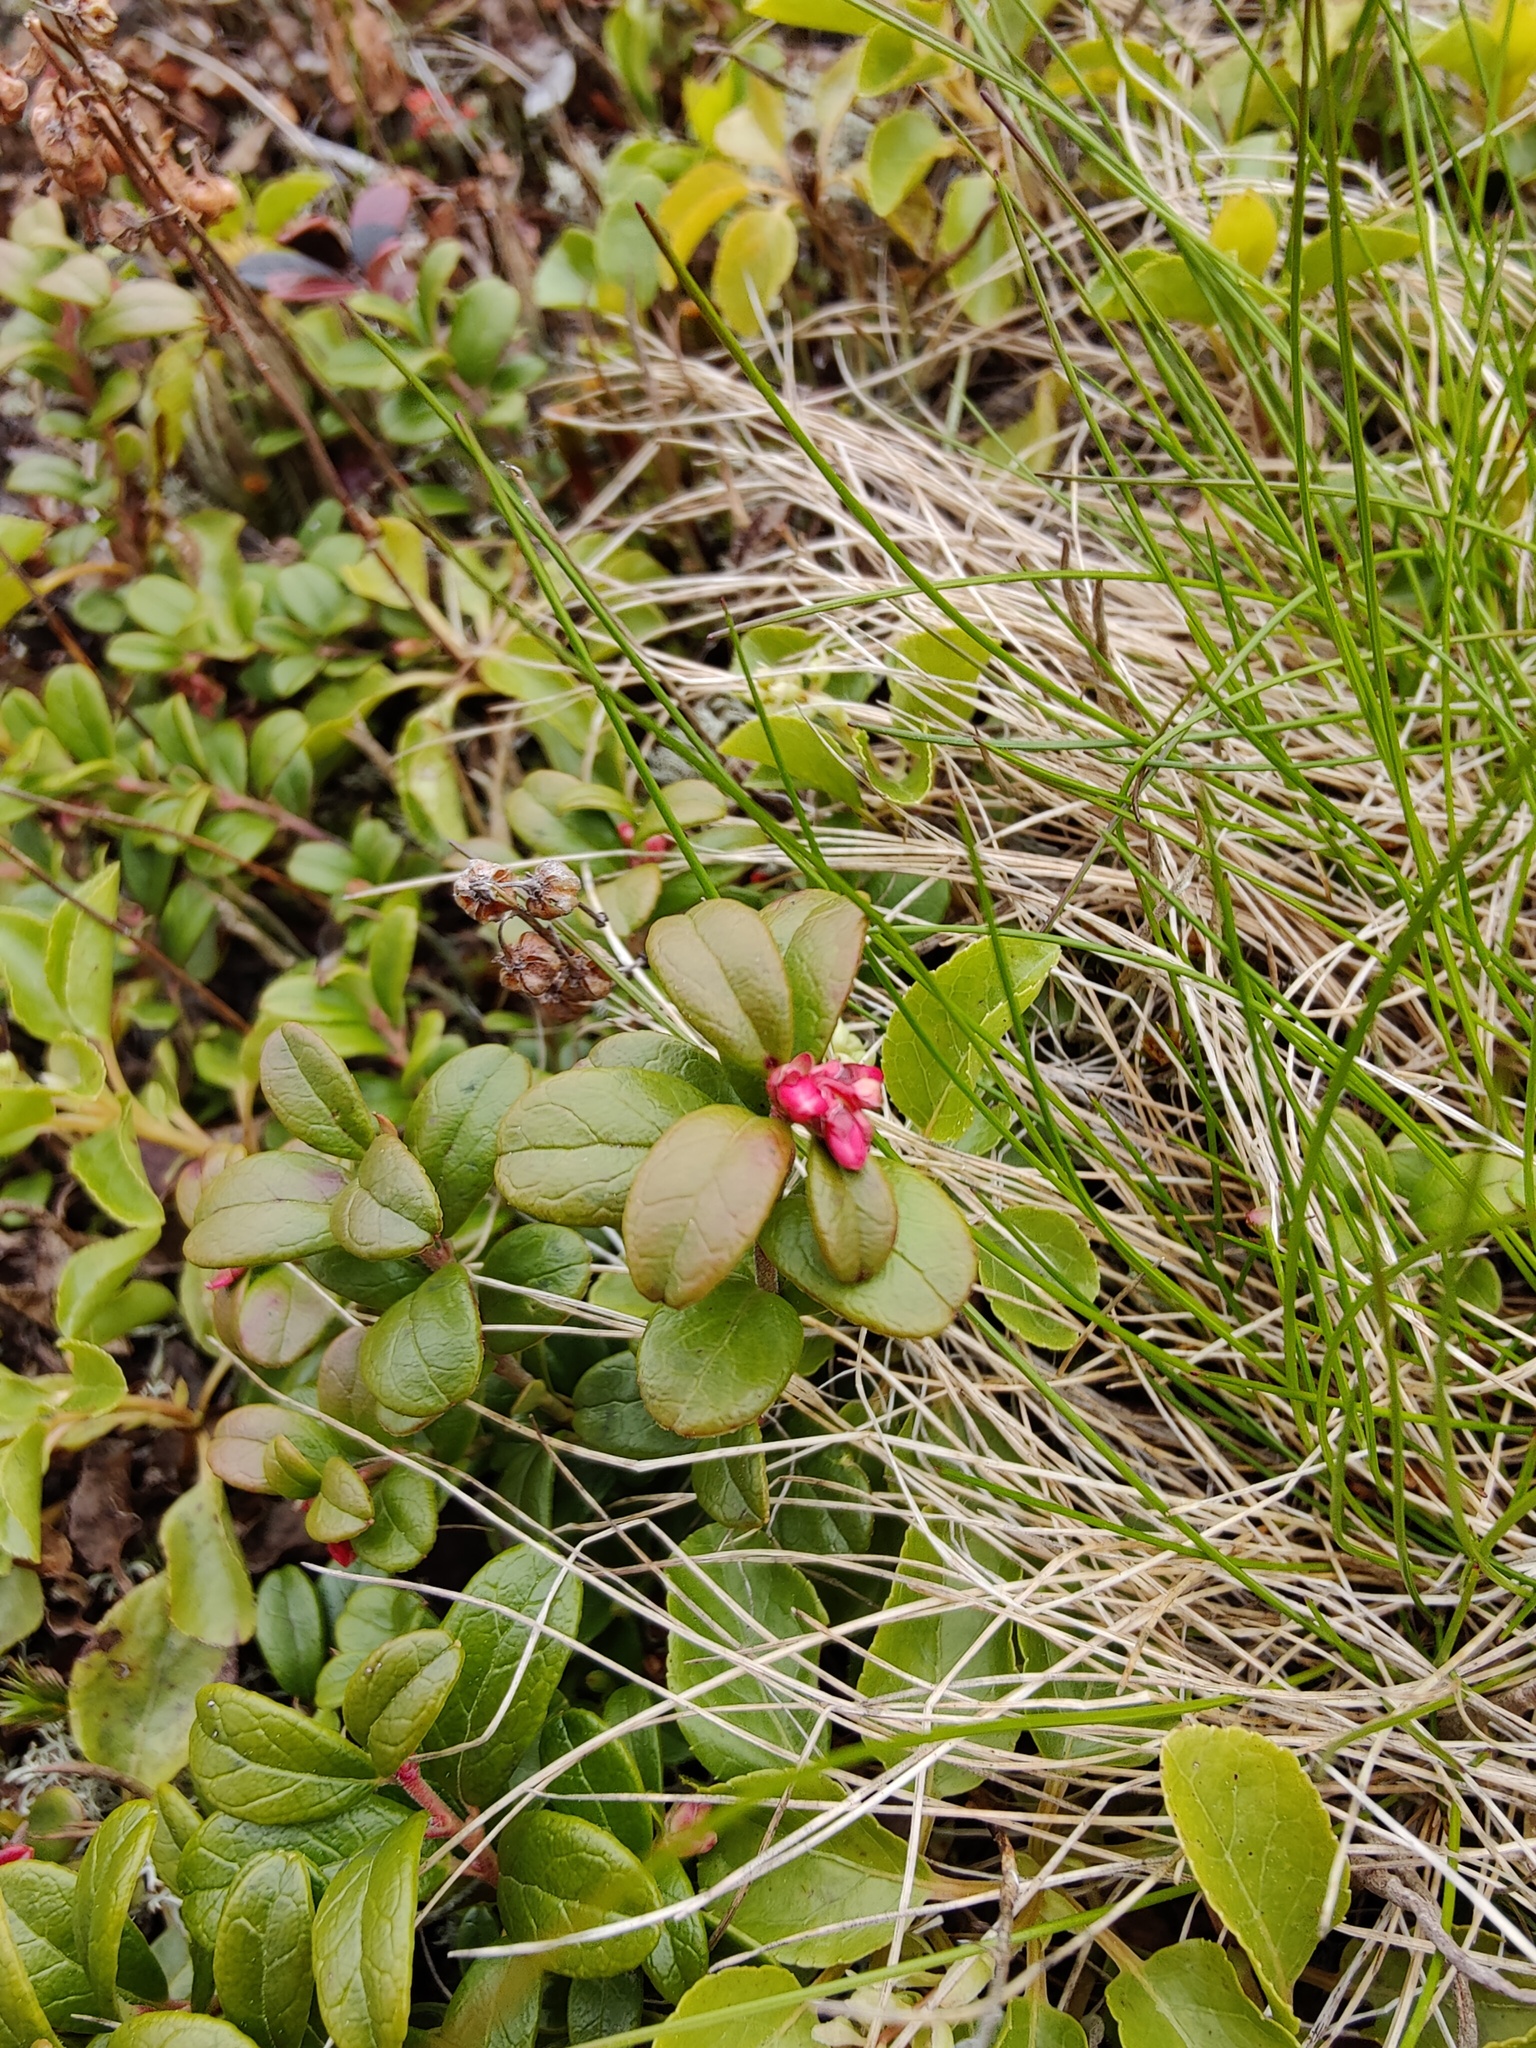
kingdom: Plantae
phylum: Tracheophyta
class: Magnoliopsida
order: Ericales
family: Ericaceae
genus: Vaccinium
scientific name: Vaccinium vitis-idaea
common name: Cowberry
